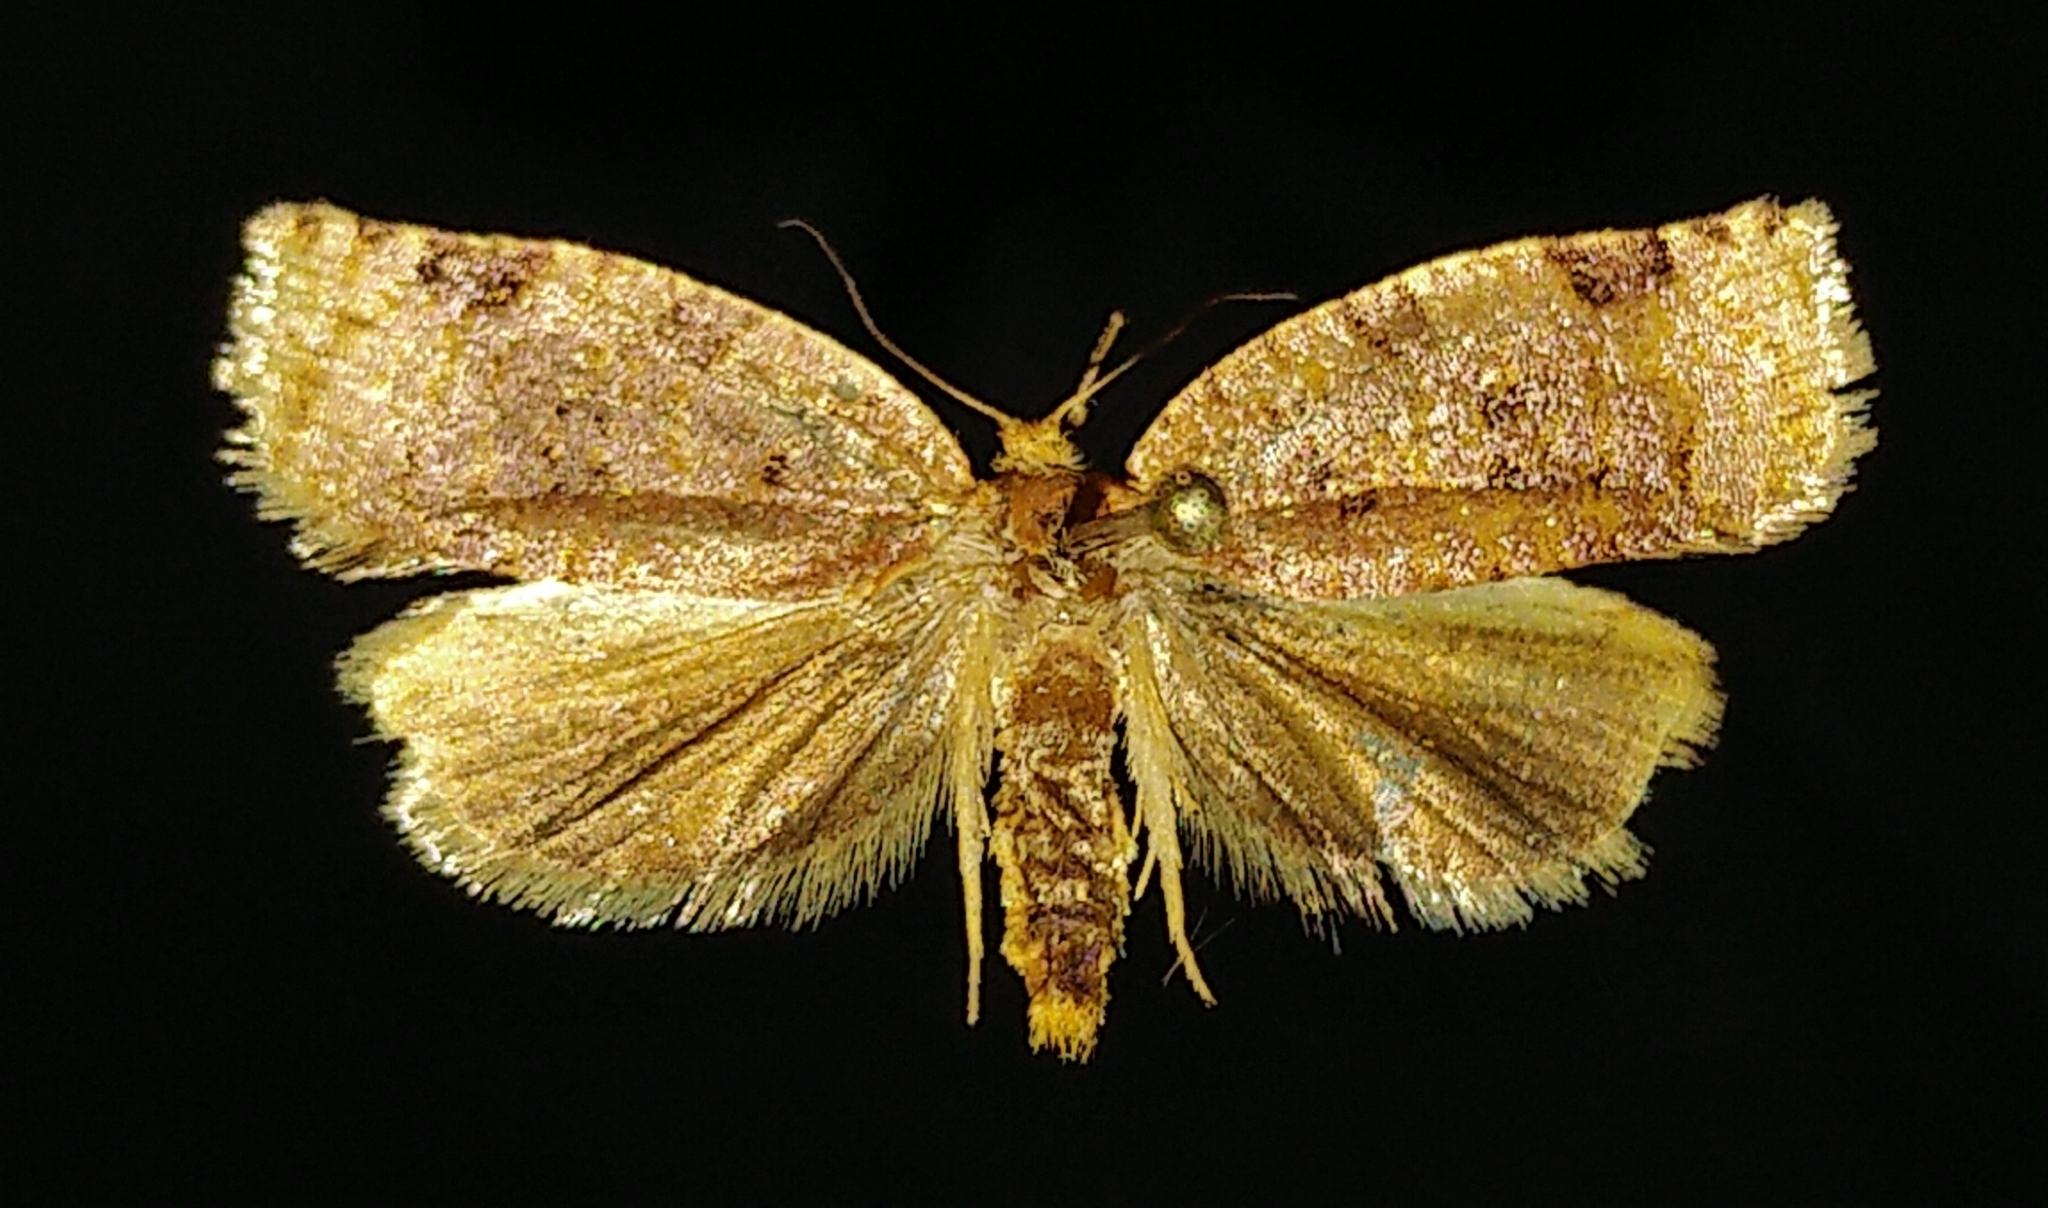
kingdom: Animalia
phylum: Arthropoda
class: Insecta
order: Lepidoptera
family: Tortricidae
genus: Archips
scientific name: Archips cerasivorana
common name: Uglynest caterpillar
